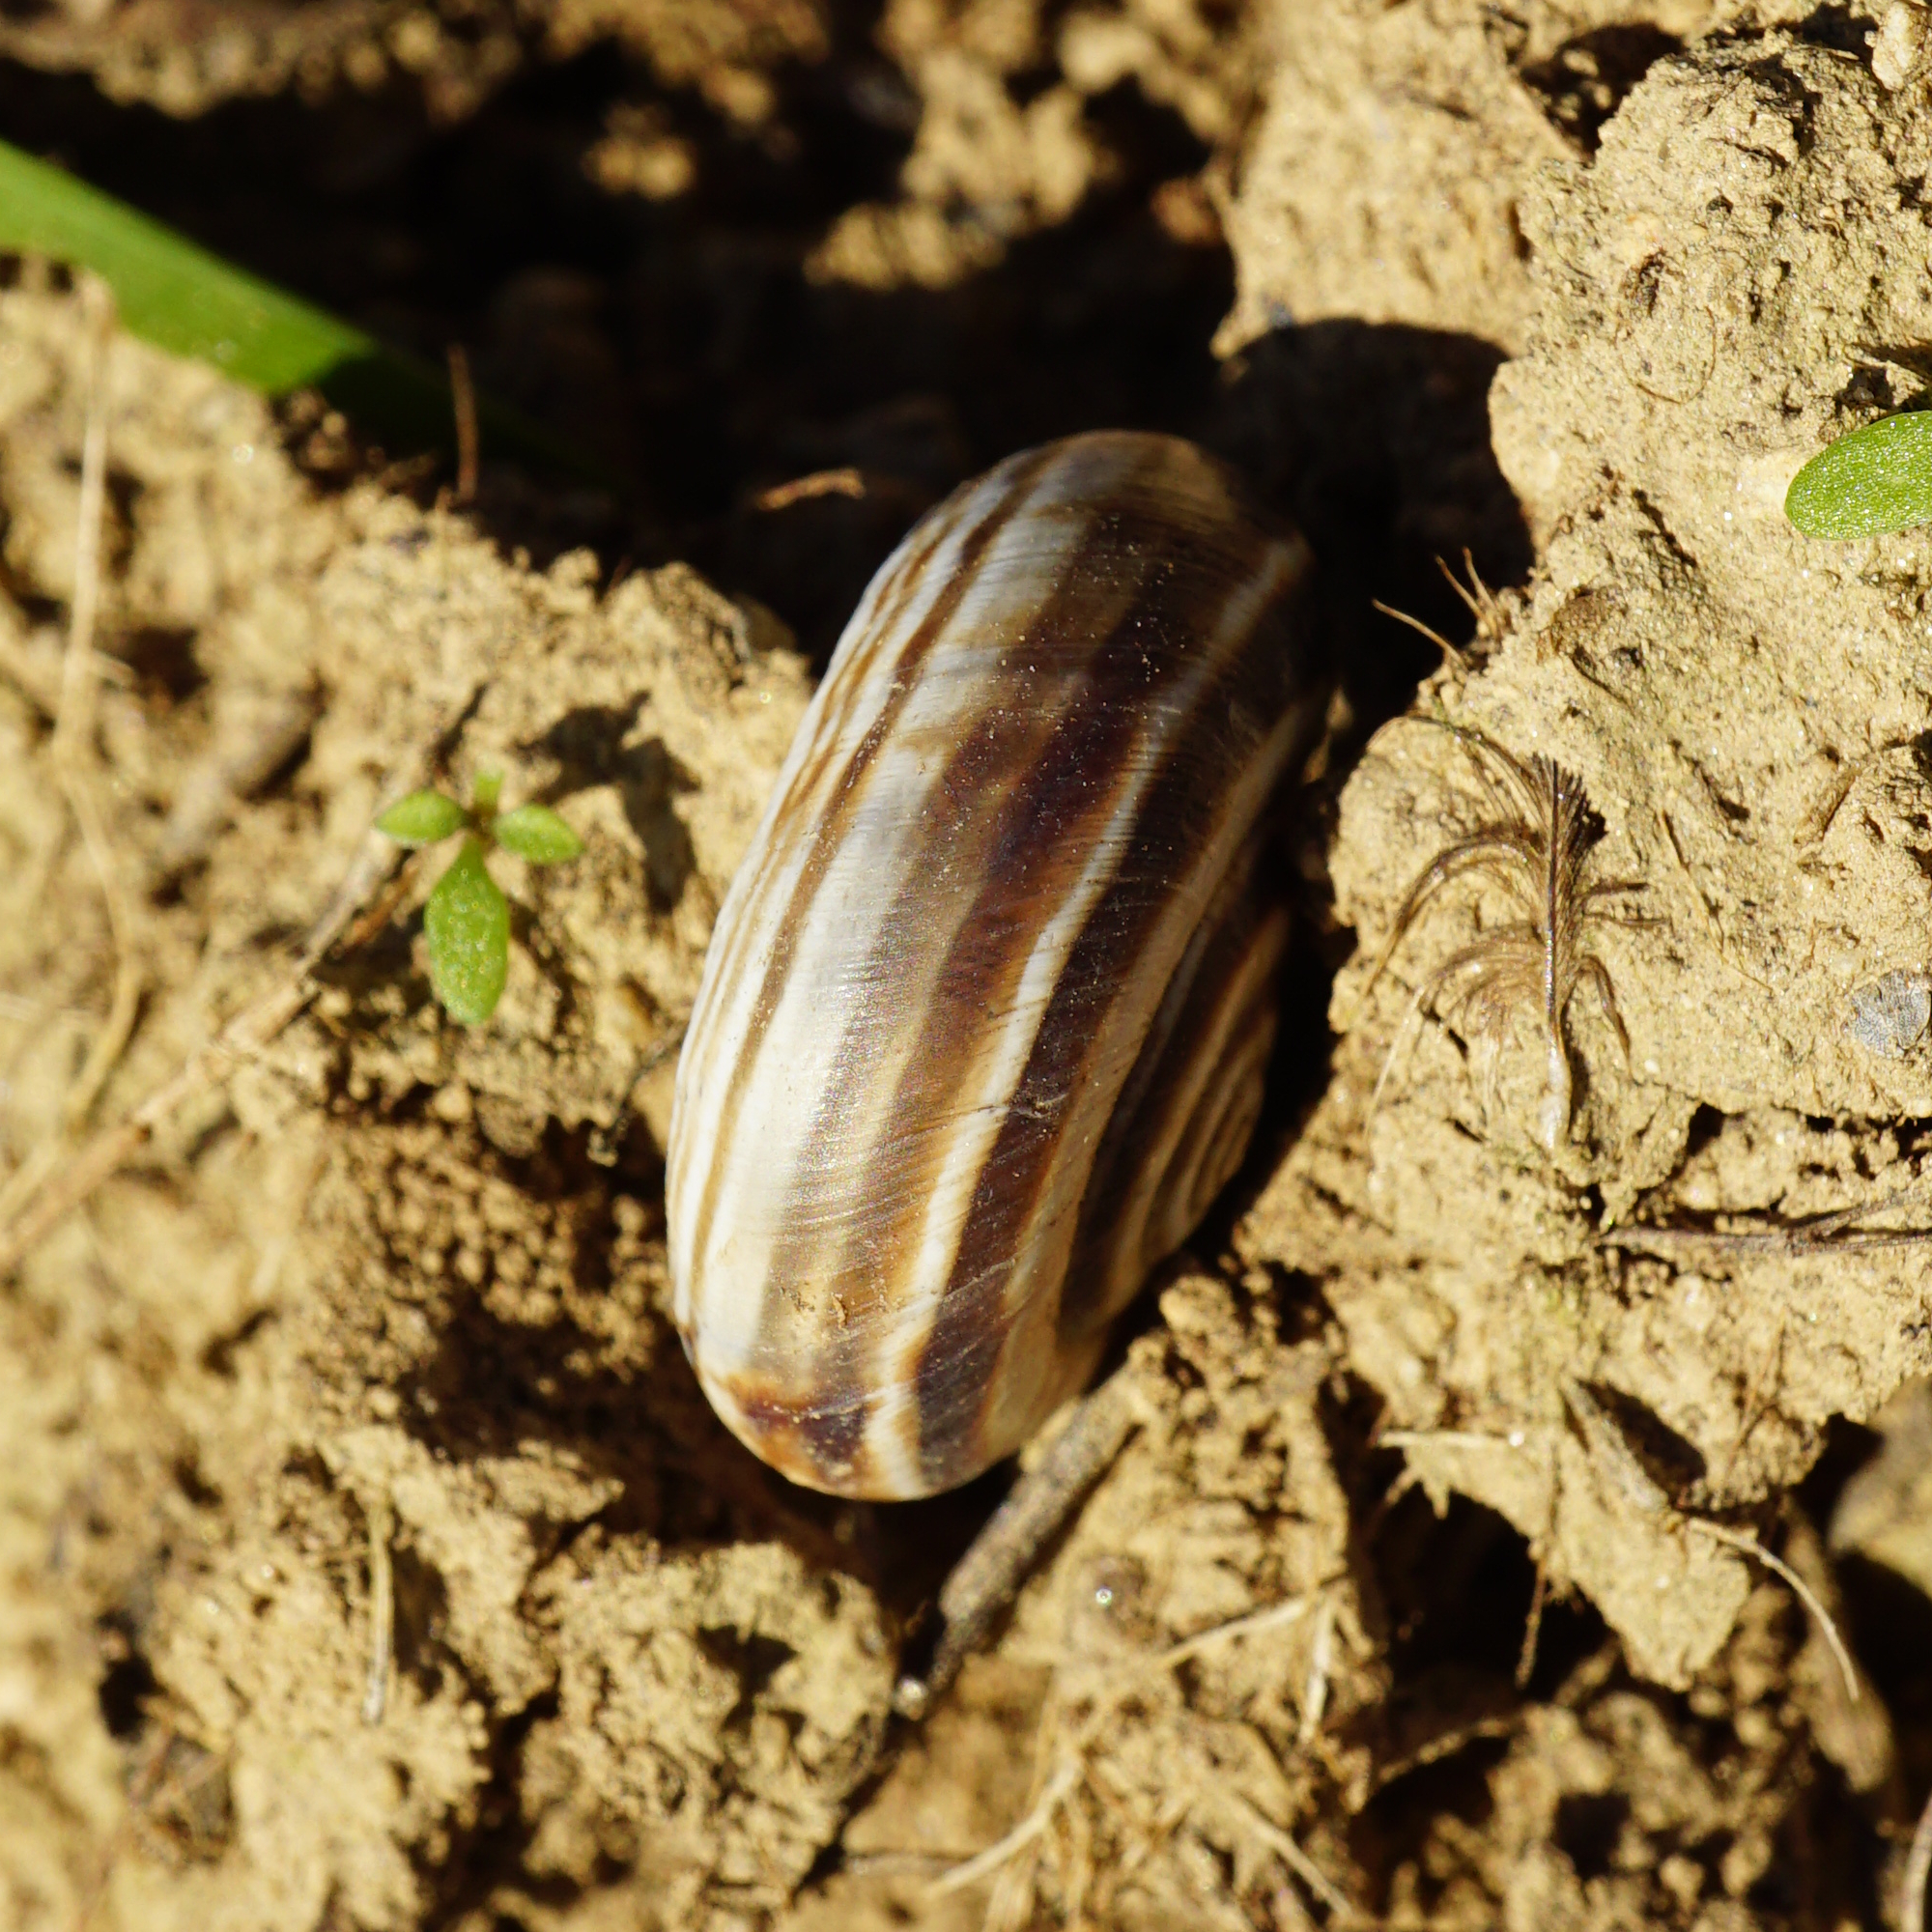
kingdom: Animalia
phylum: Mollusca
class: Gastropoda
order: Stylommatophora
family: Geomitridae
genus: Xerolenta
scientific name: Xerolenta obvia
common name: White heath snail
